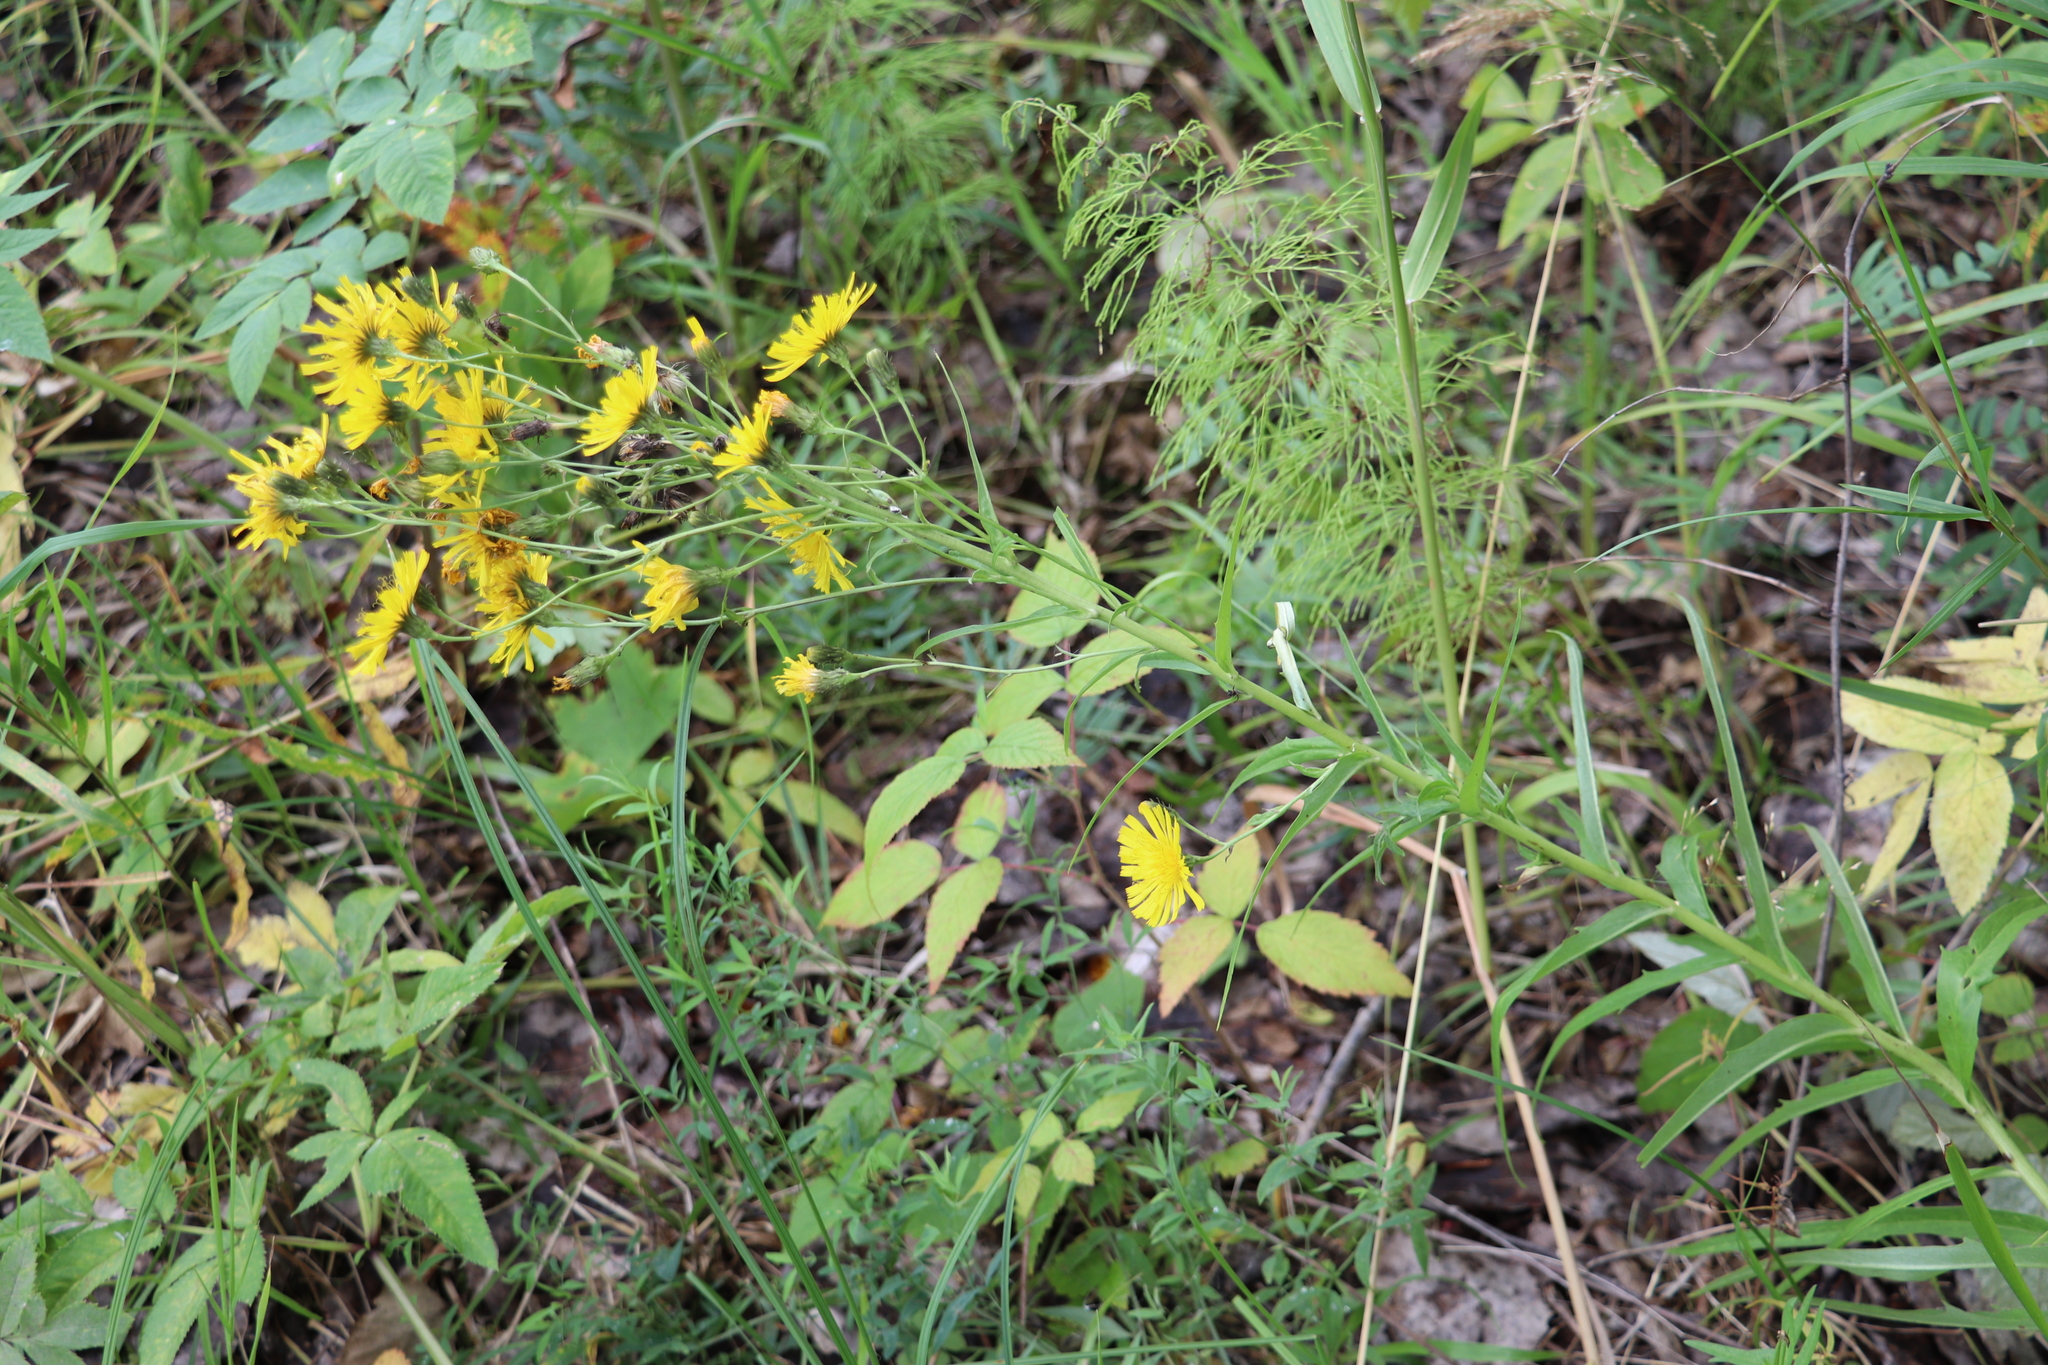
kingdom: Plantae
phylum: Tracheophyta
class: Magnoliopsida
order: Asterales
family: Asteraceae
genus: Hieracium
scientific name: Hieracium umbellatum
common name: Northern hawkweed
